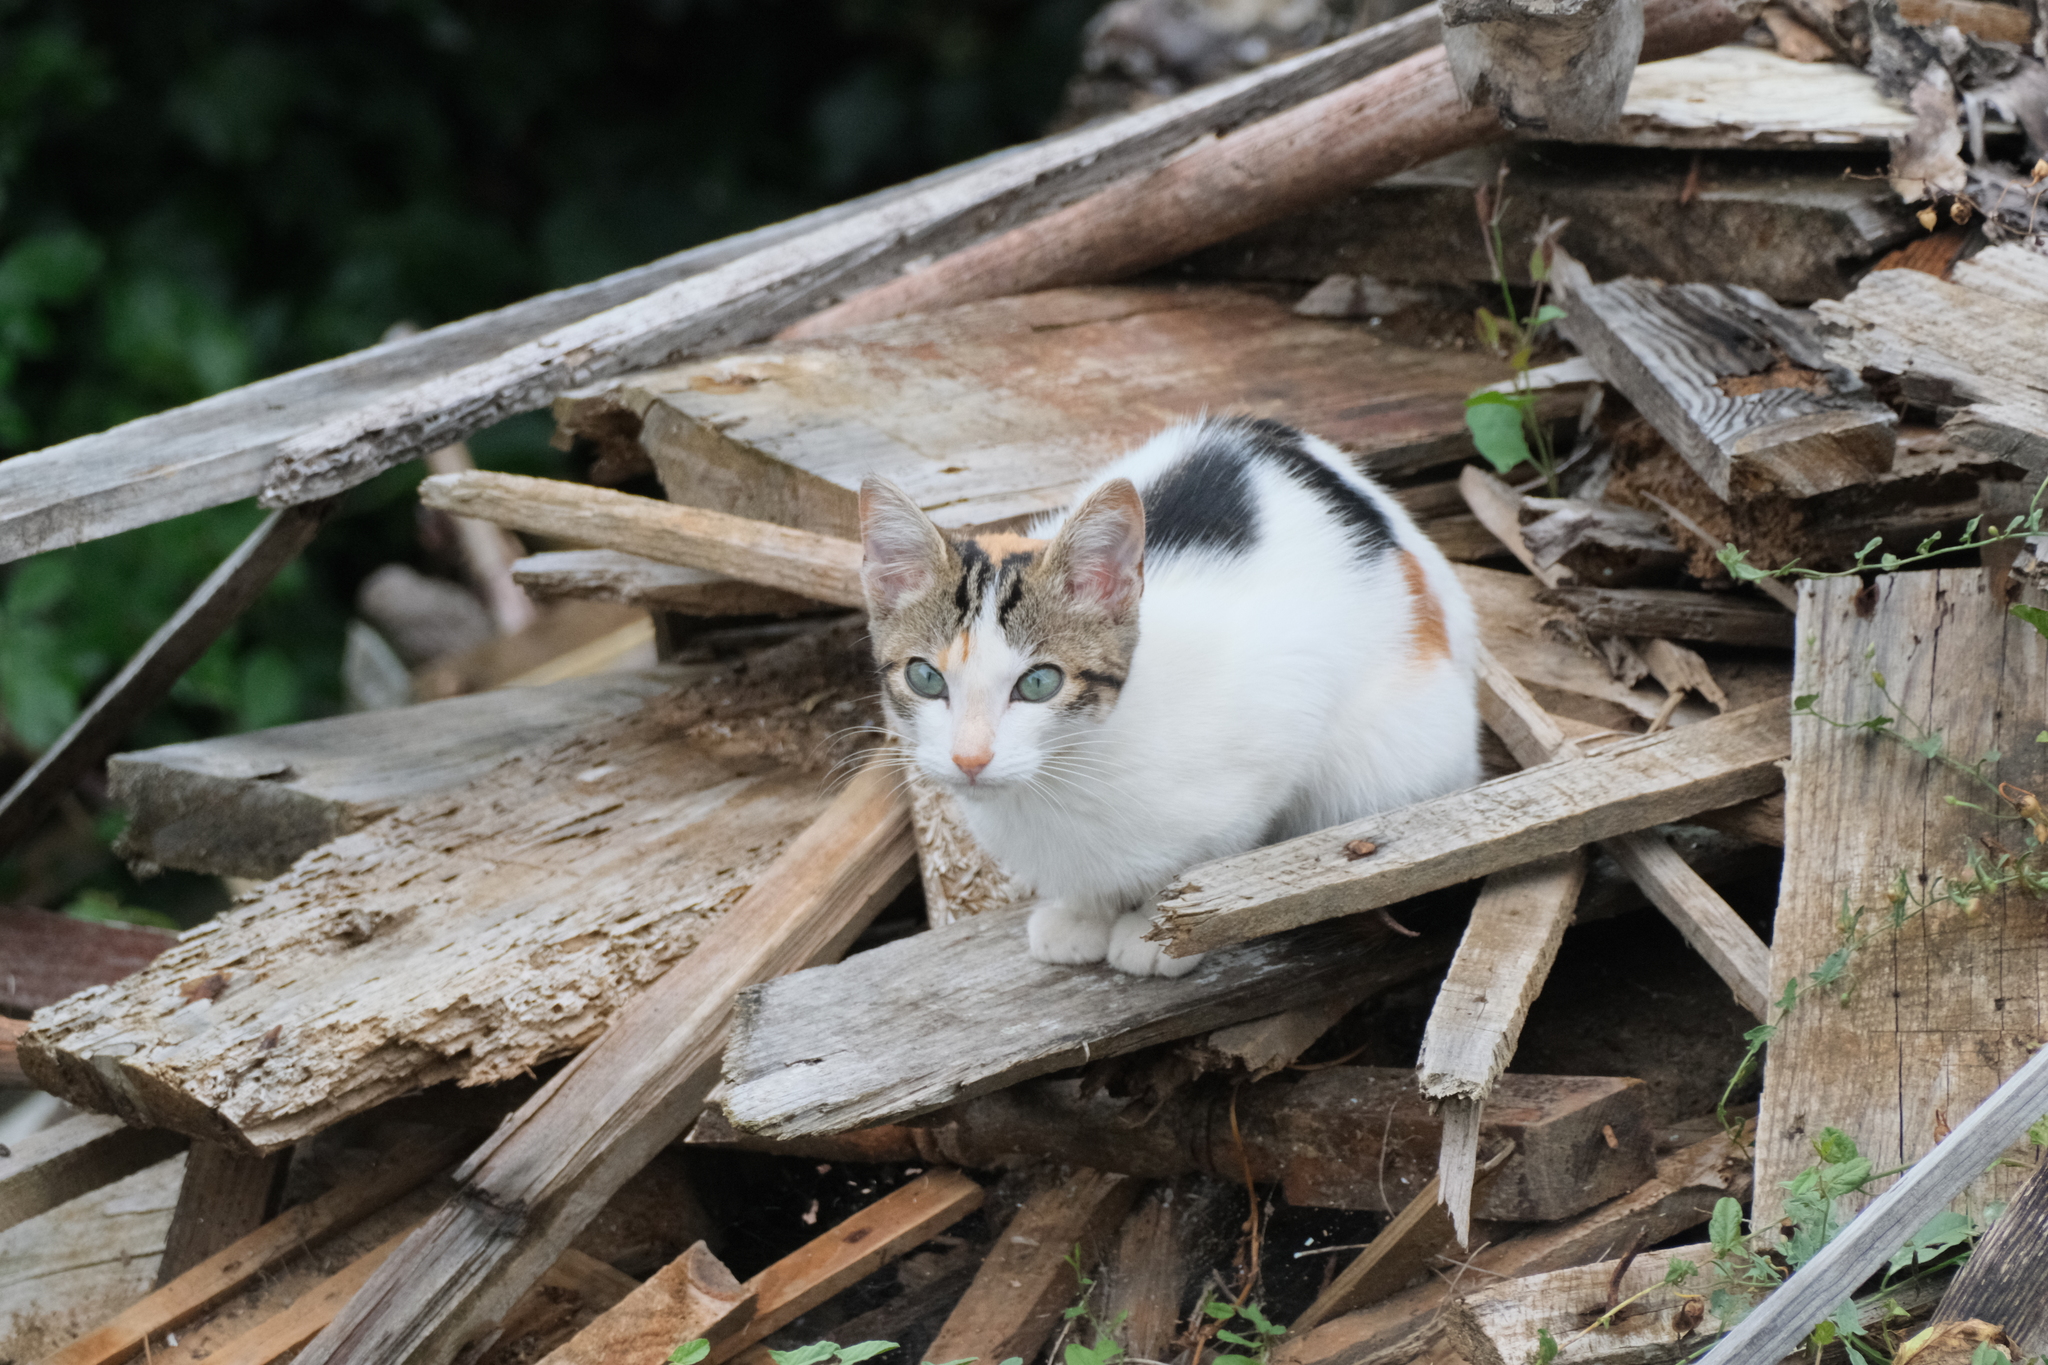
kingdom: Animalia
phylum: Chordata
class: Mammalia
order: Carnivora
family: Felidae
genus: Felis
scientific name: Felis catus
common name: Domestic cat
